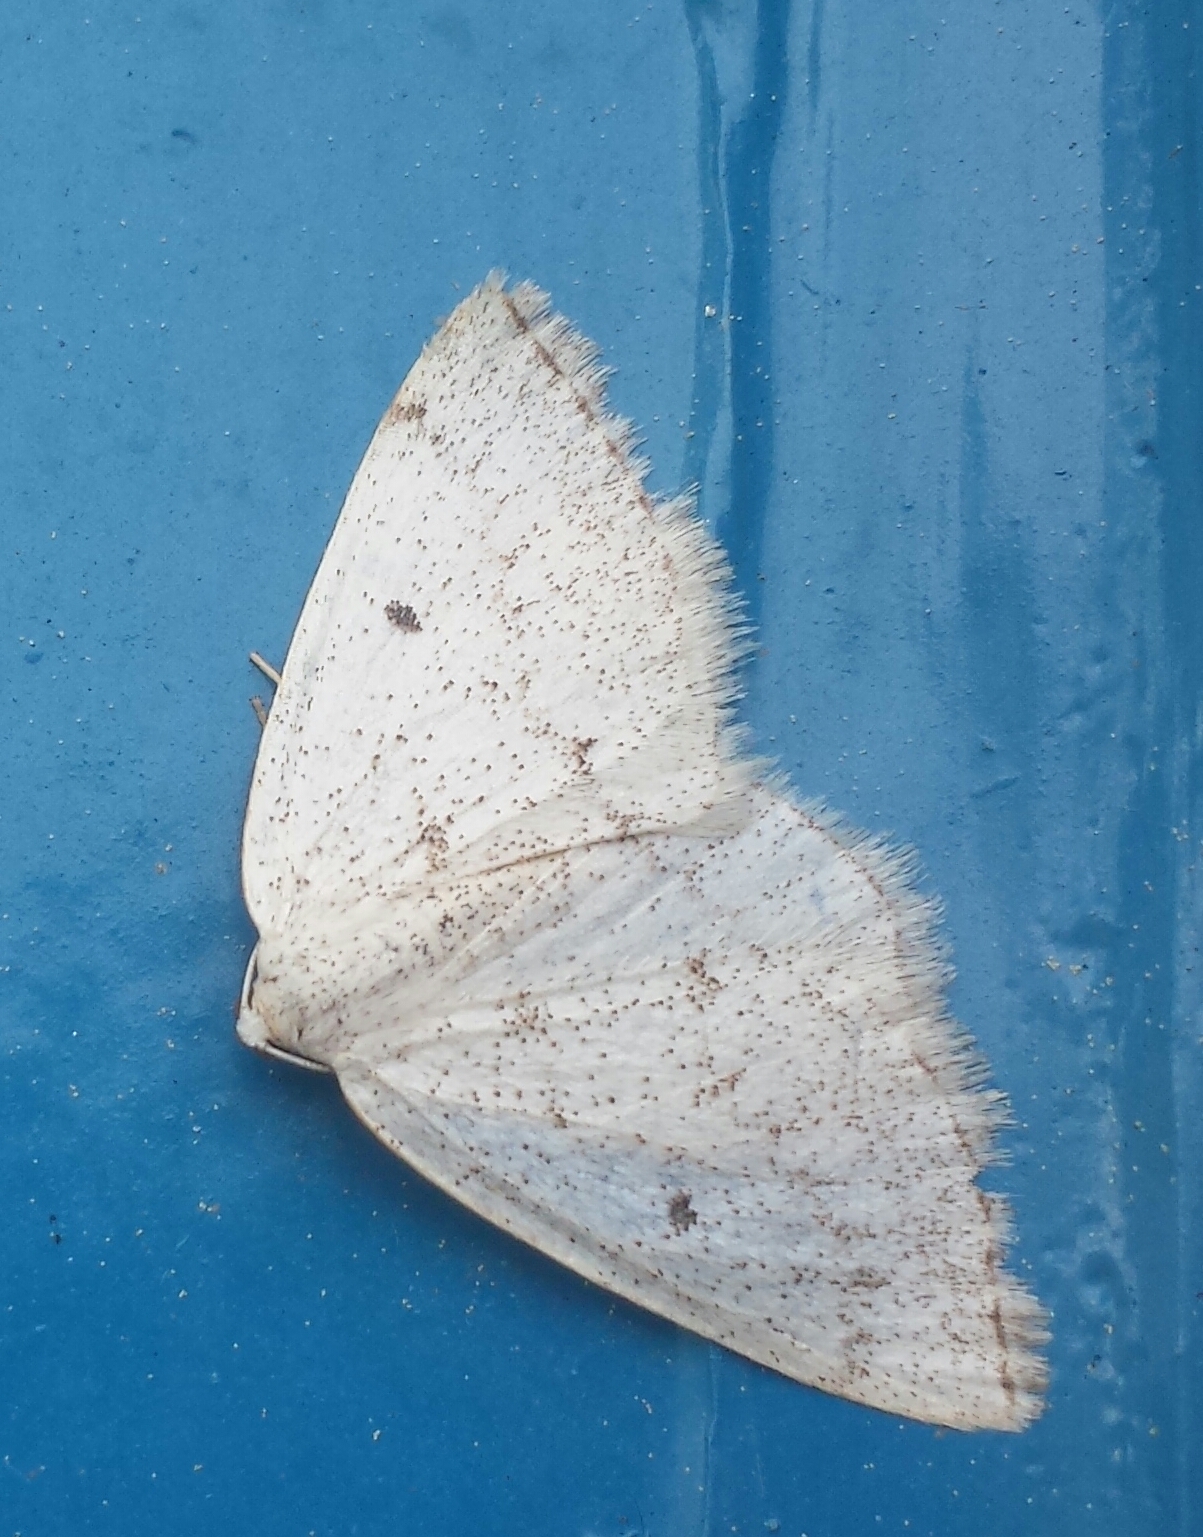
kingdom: Animalia
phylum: Arthropoda
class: Insecta
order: Lepidoptera
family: Geometridae
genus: Lomographa
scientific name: Lomographa glomeraria
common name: Gray spring moth
